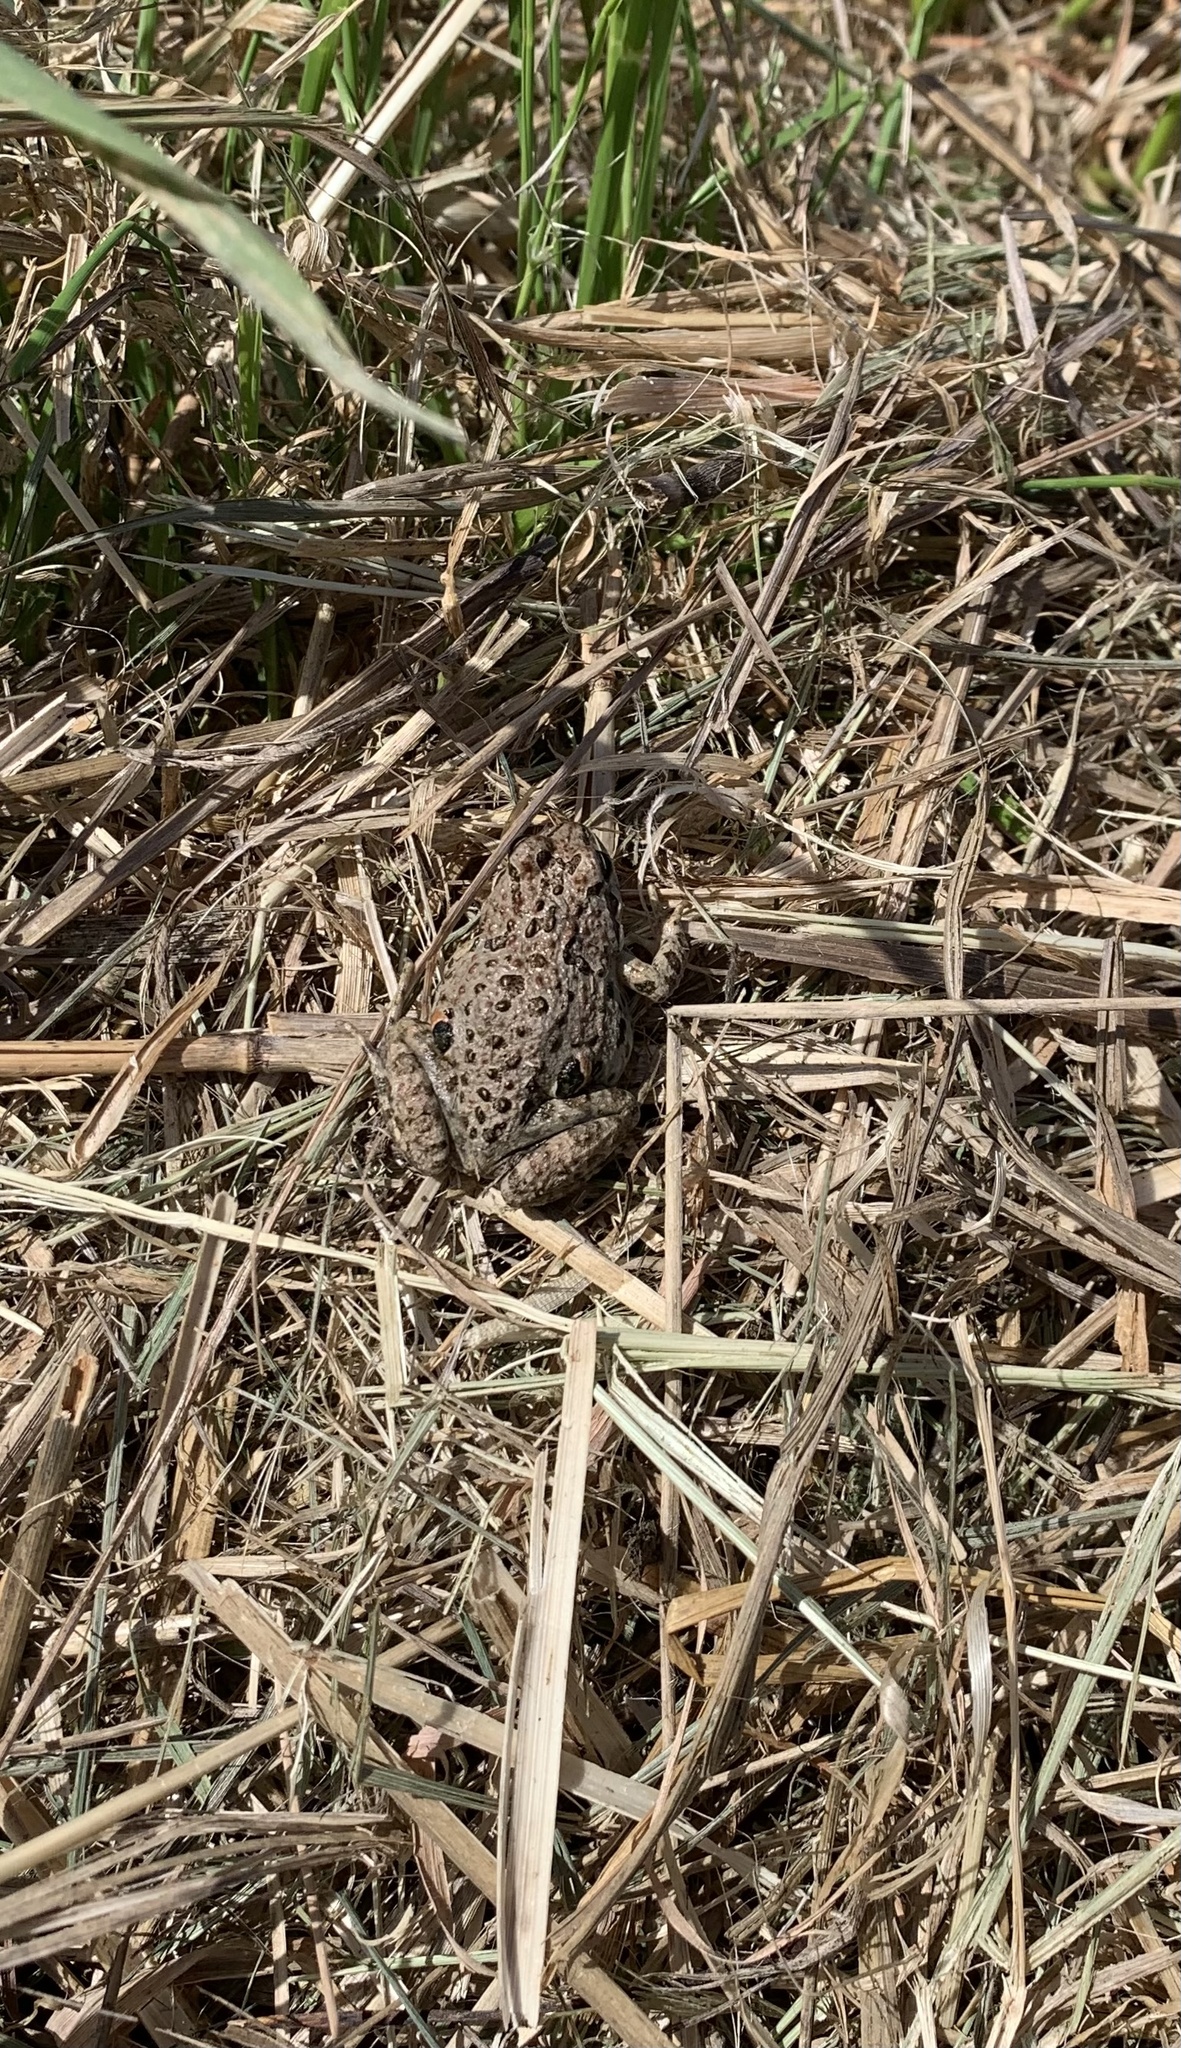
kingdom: Animalia
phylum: Chordata
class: Amphibia
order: Anura
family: Leptodactylidae
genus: Pleurodema
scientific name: Pleurodema thaul
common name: Chile four-eyed frog
